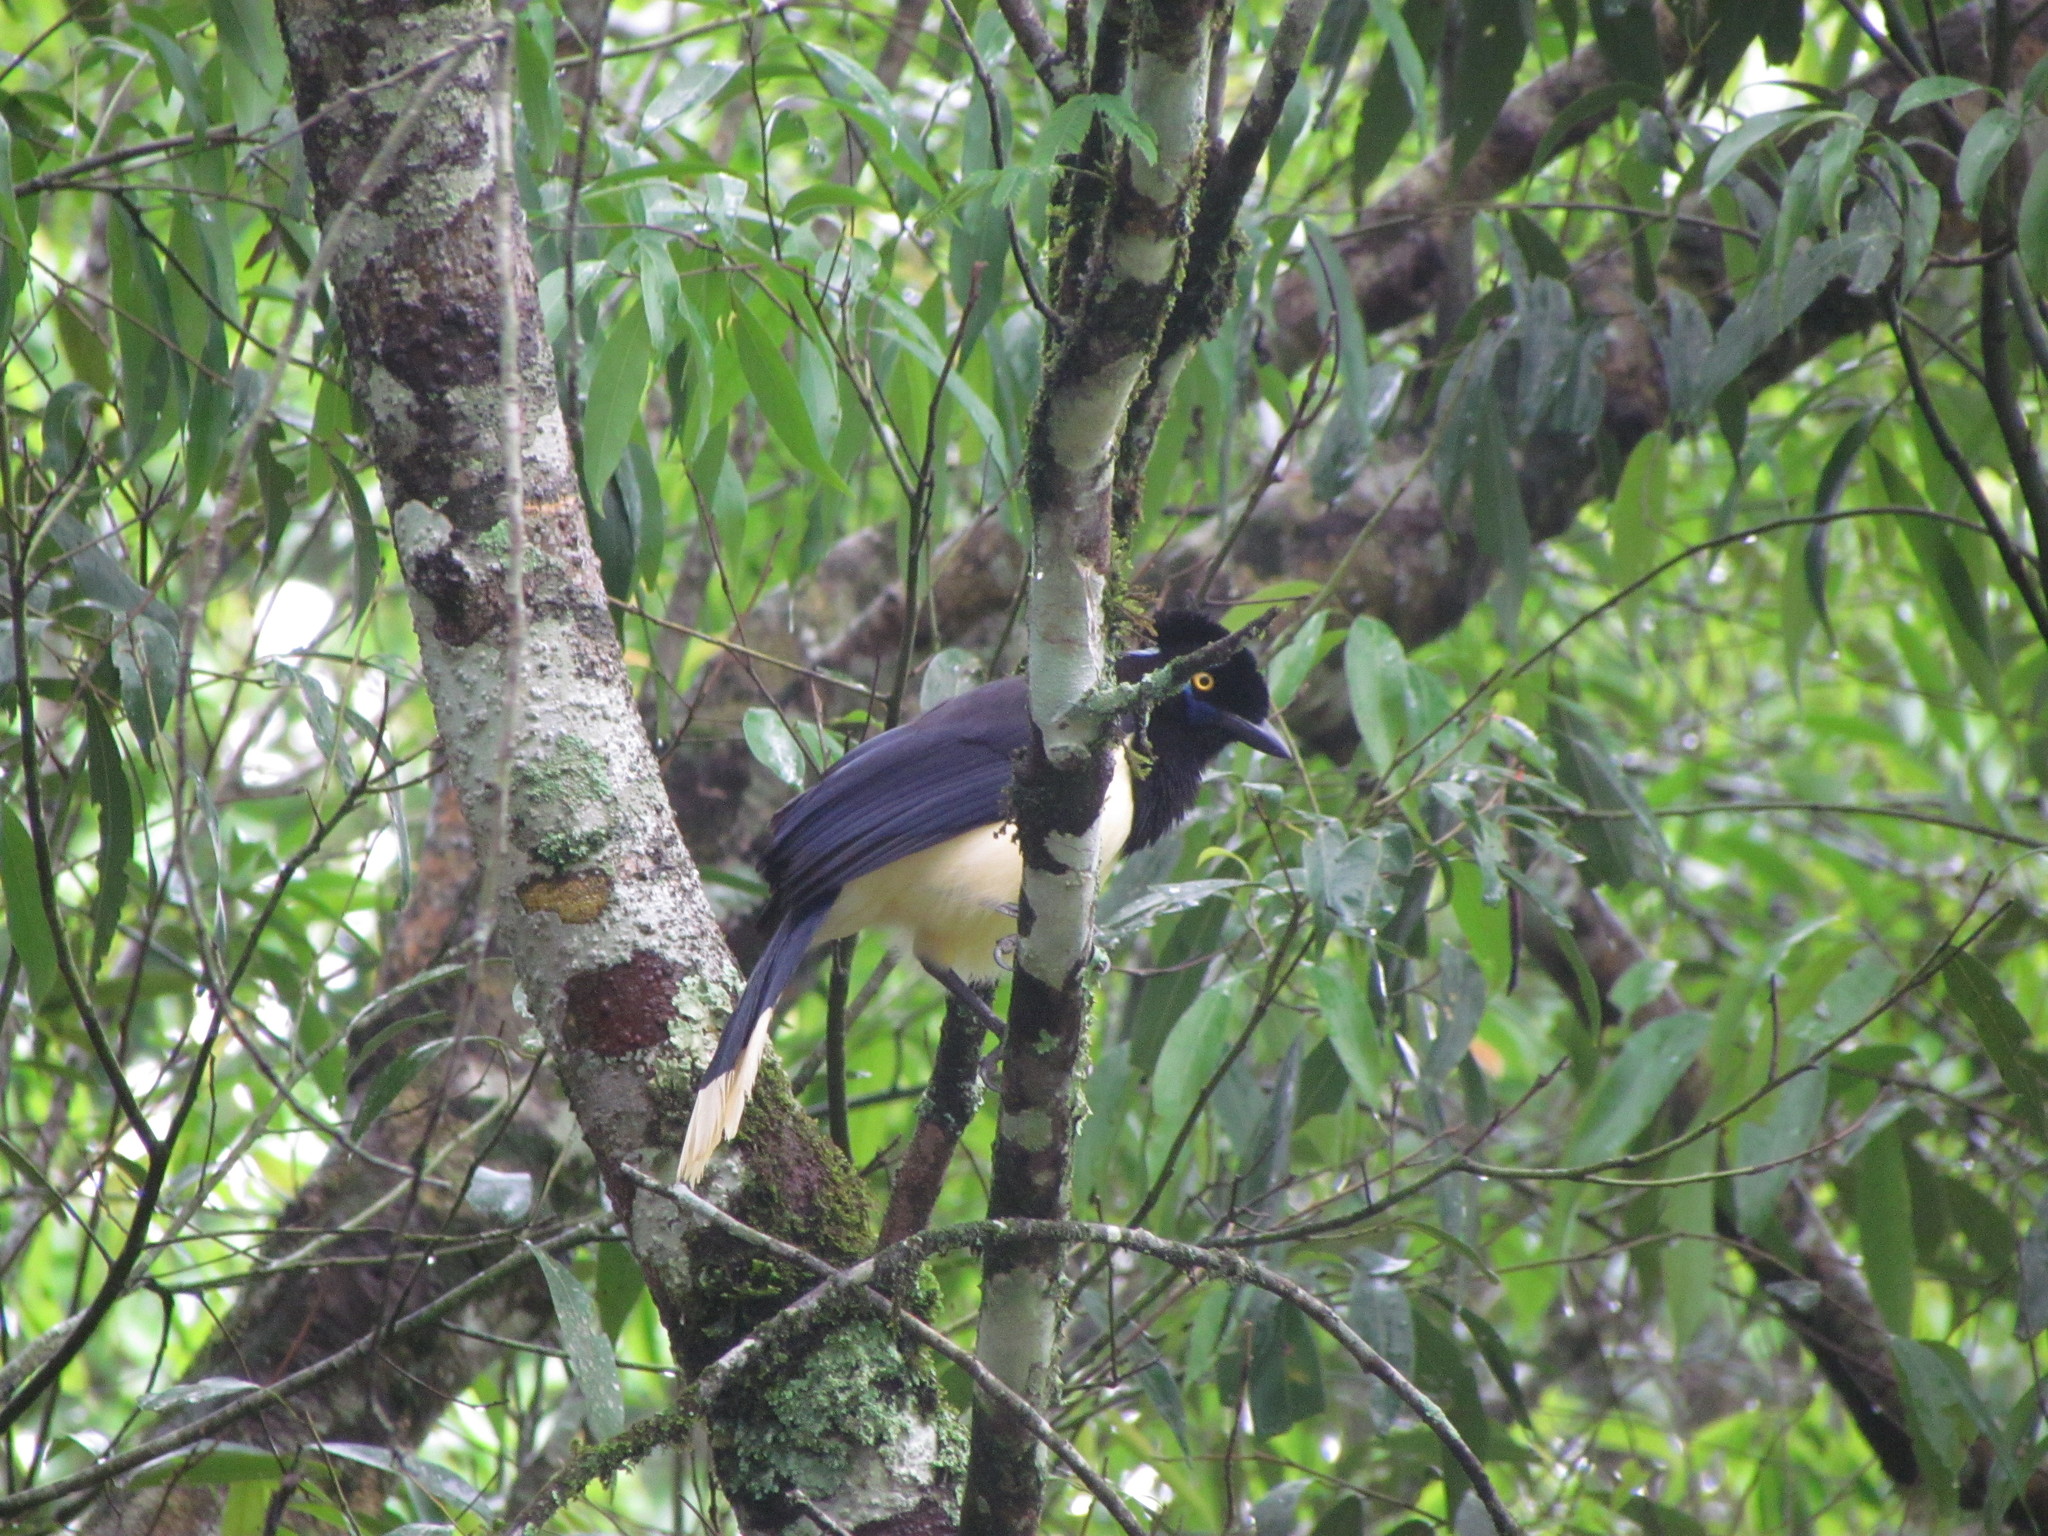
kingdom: Animalia
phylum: Chordata
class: Aves
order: Passeriformes
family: Corvidae
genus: Cyanocorax
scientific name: Cyanocorax chrysops
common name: Plush-crested jay
